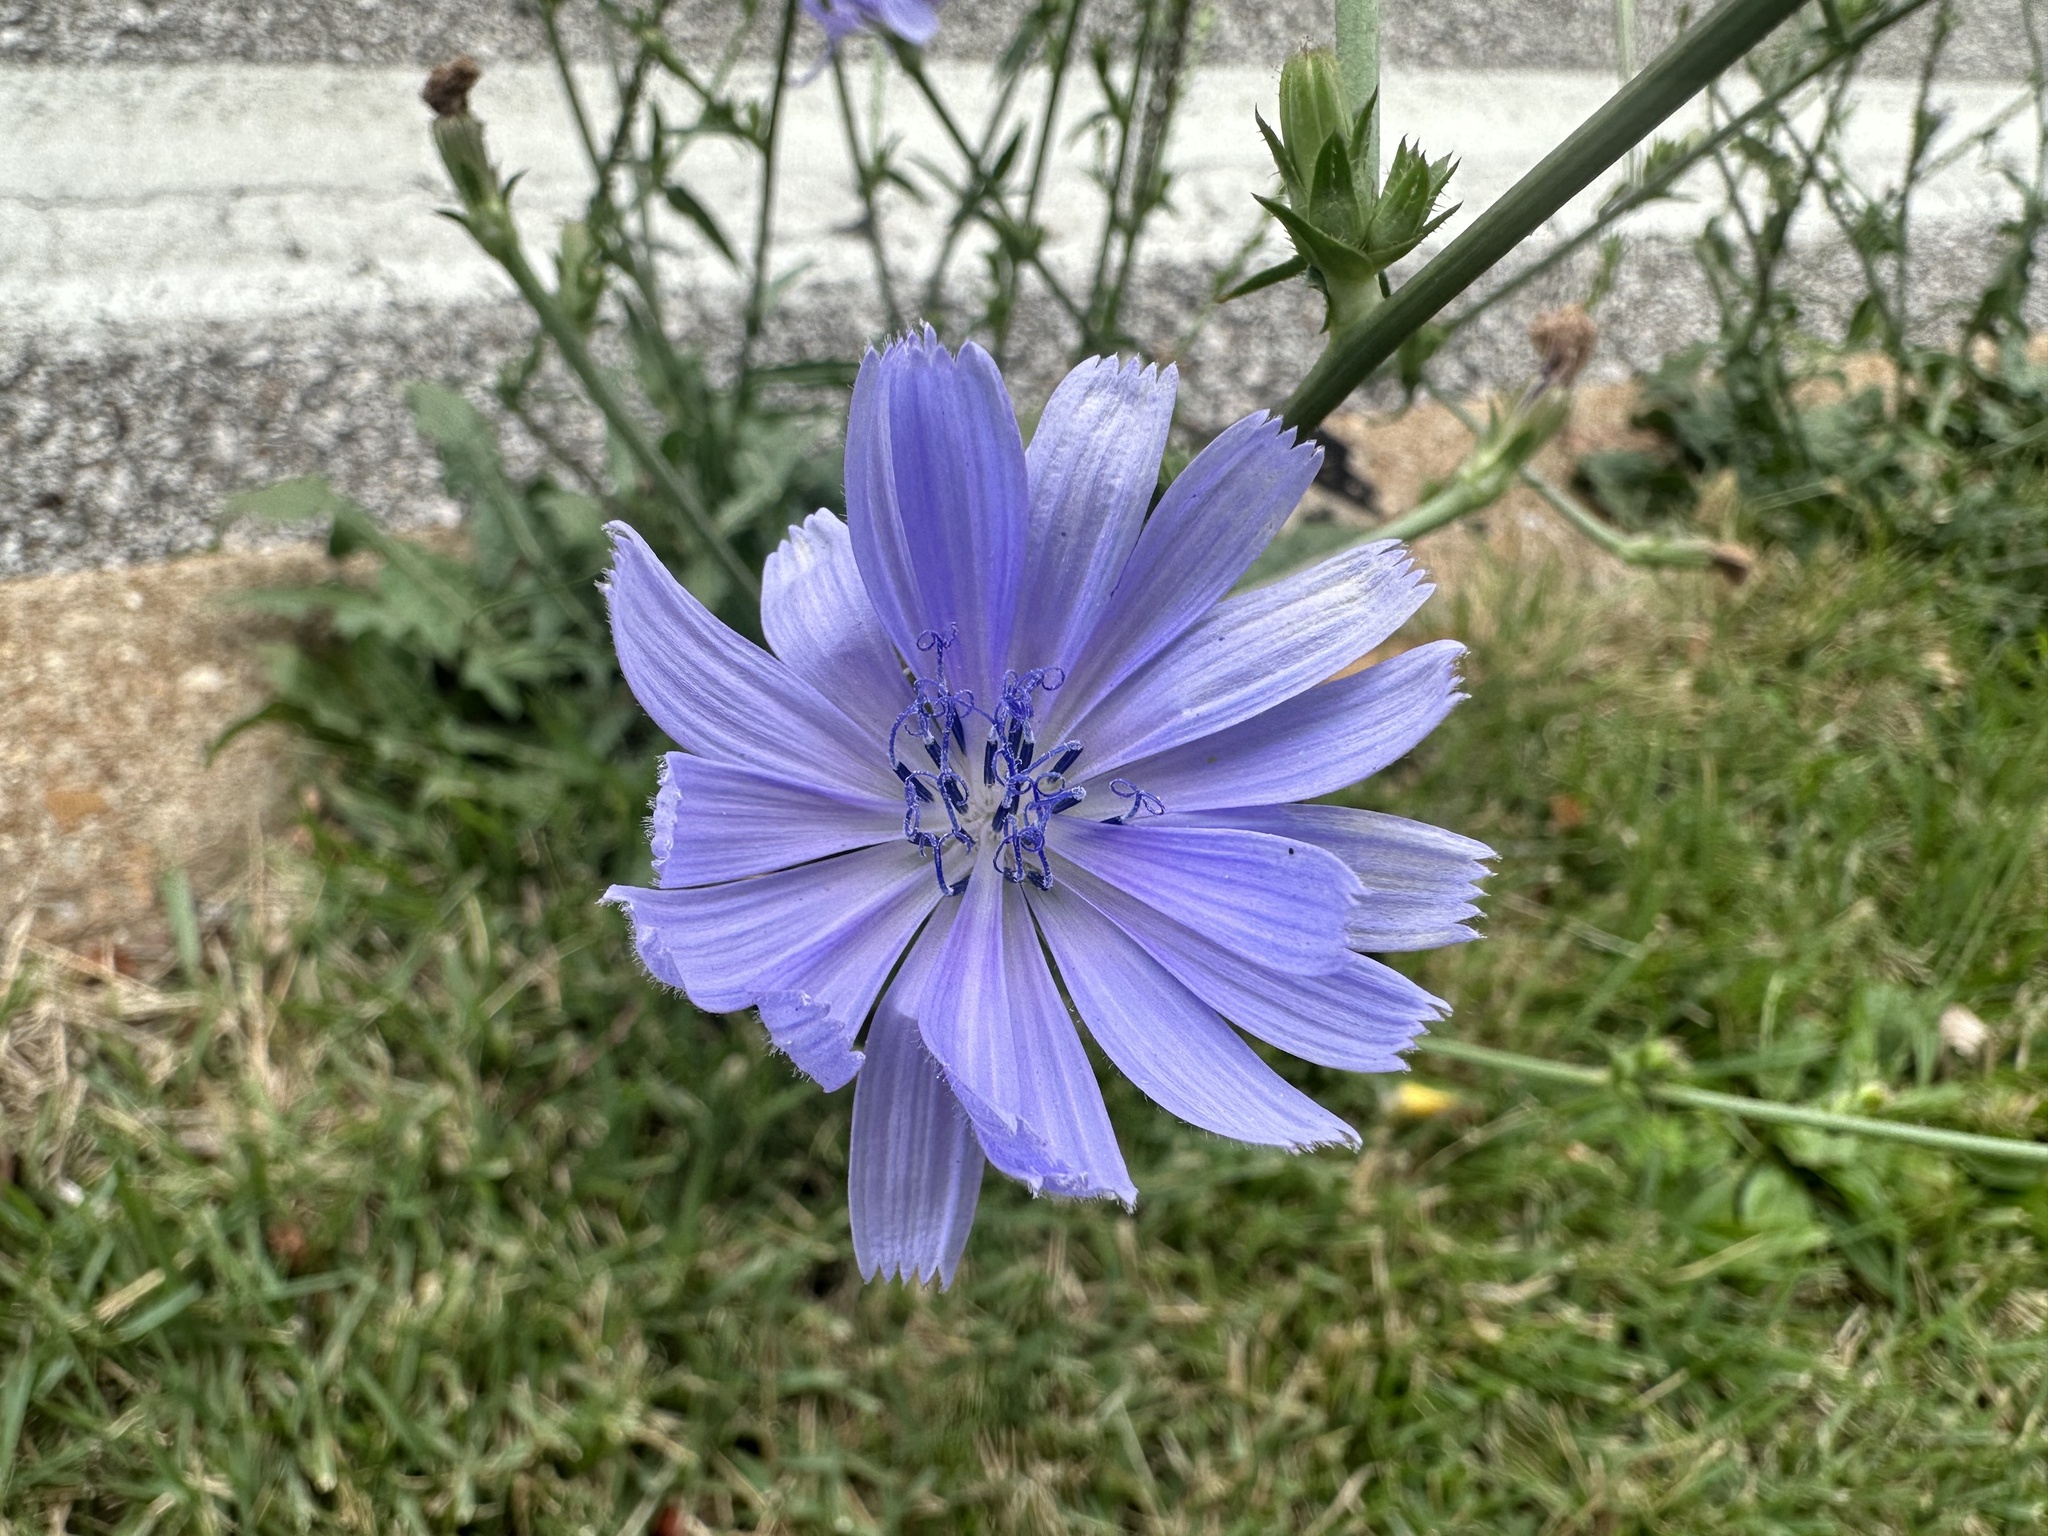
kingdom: Plantae
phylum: Tracheophyta
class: Magnoliopsida
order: Asterales
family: Asteraceae
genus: Cichorium
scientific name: Cichorium intybus
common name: Chicory
